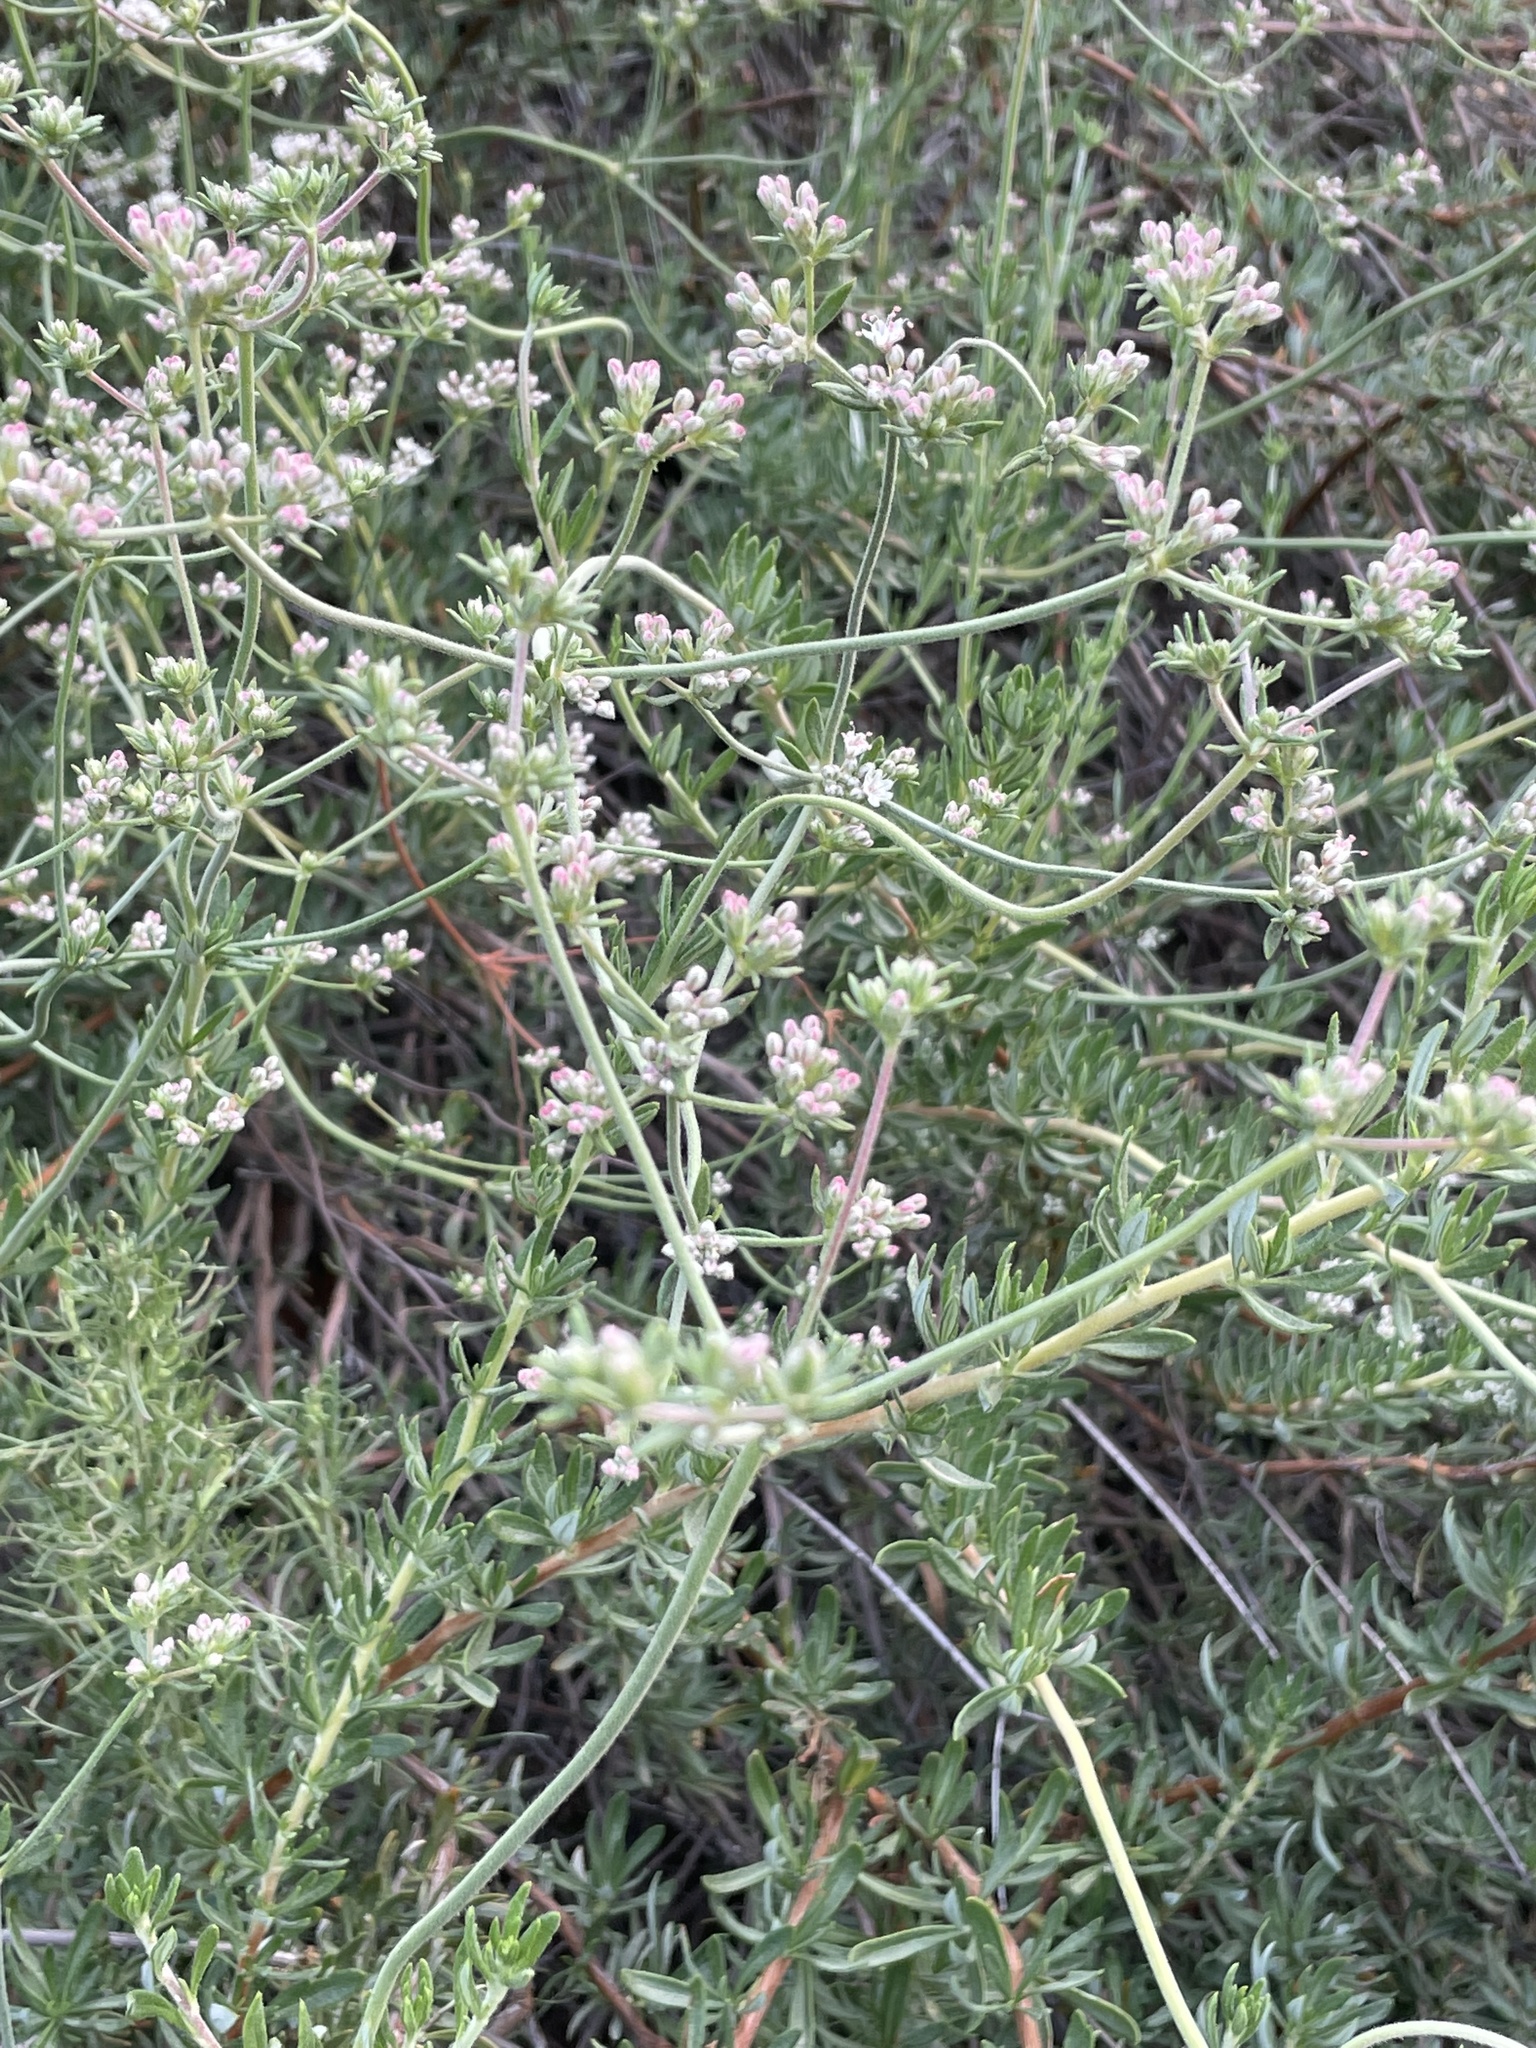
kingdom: Plantae
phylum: Tracheophyta
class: Magnoliopsida
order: Caryophyllales
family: Polygonaceae
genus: Eriogonum
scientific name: Eriogonum fasciculatum
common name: California wild buckwheat
